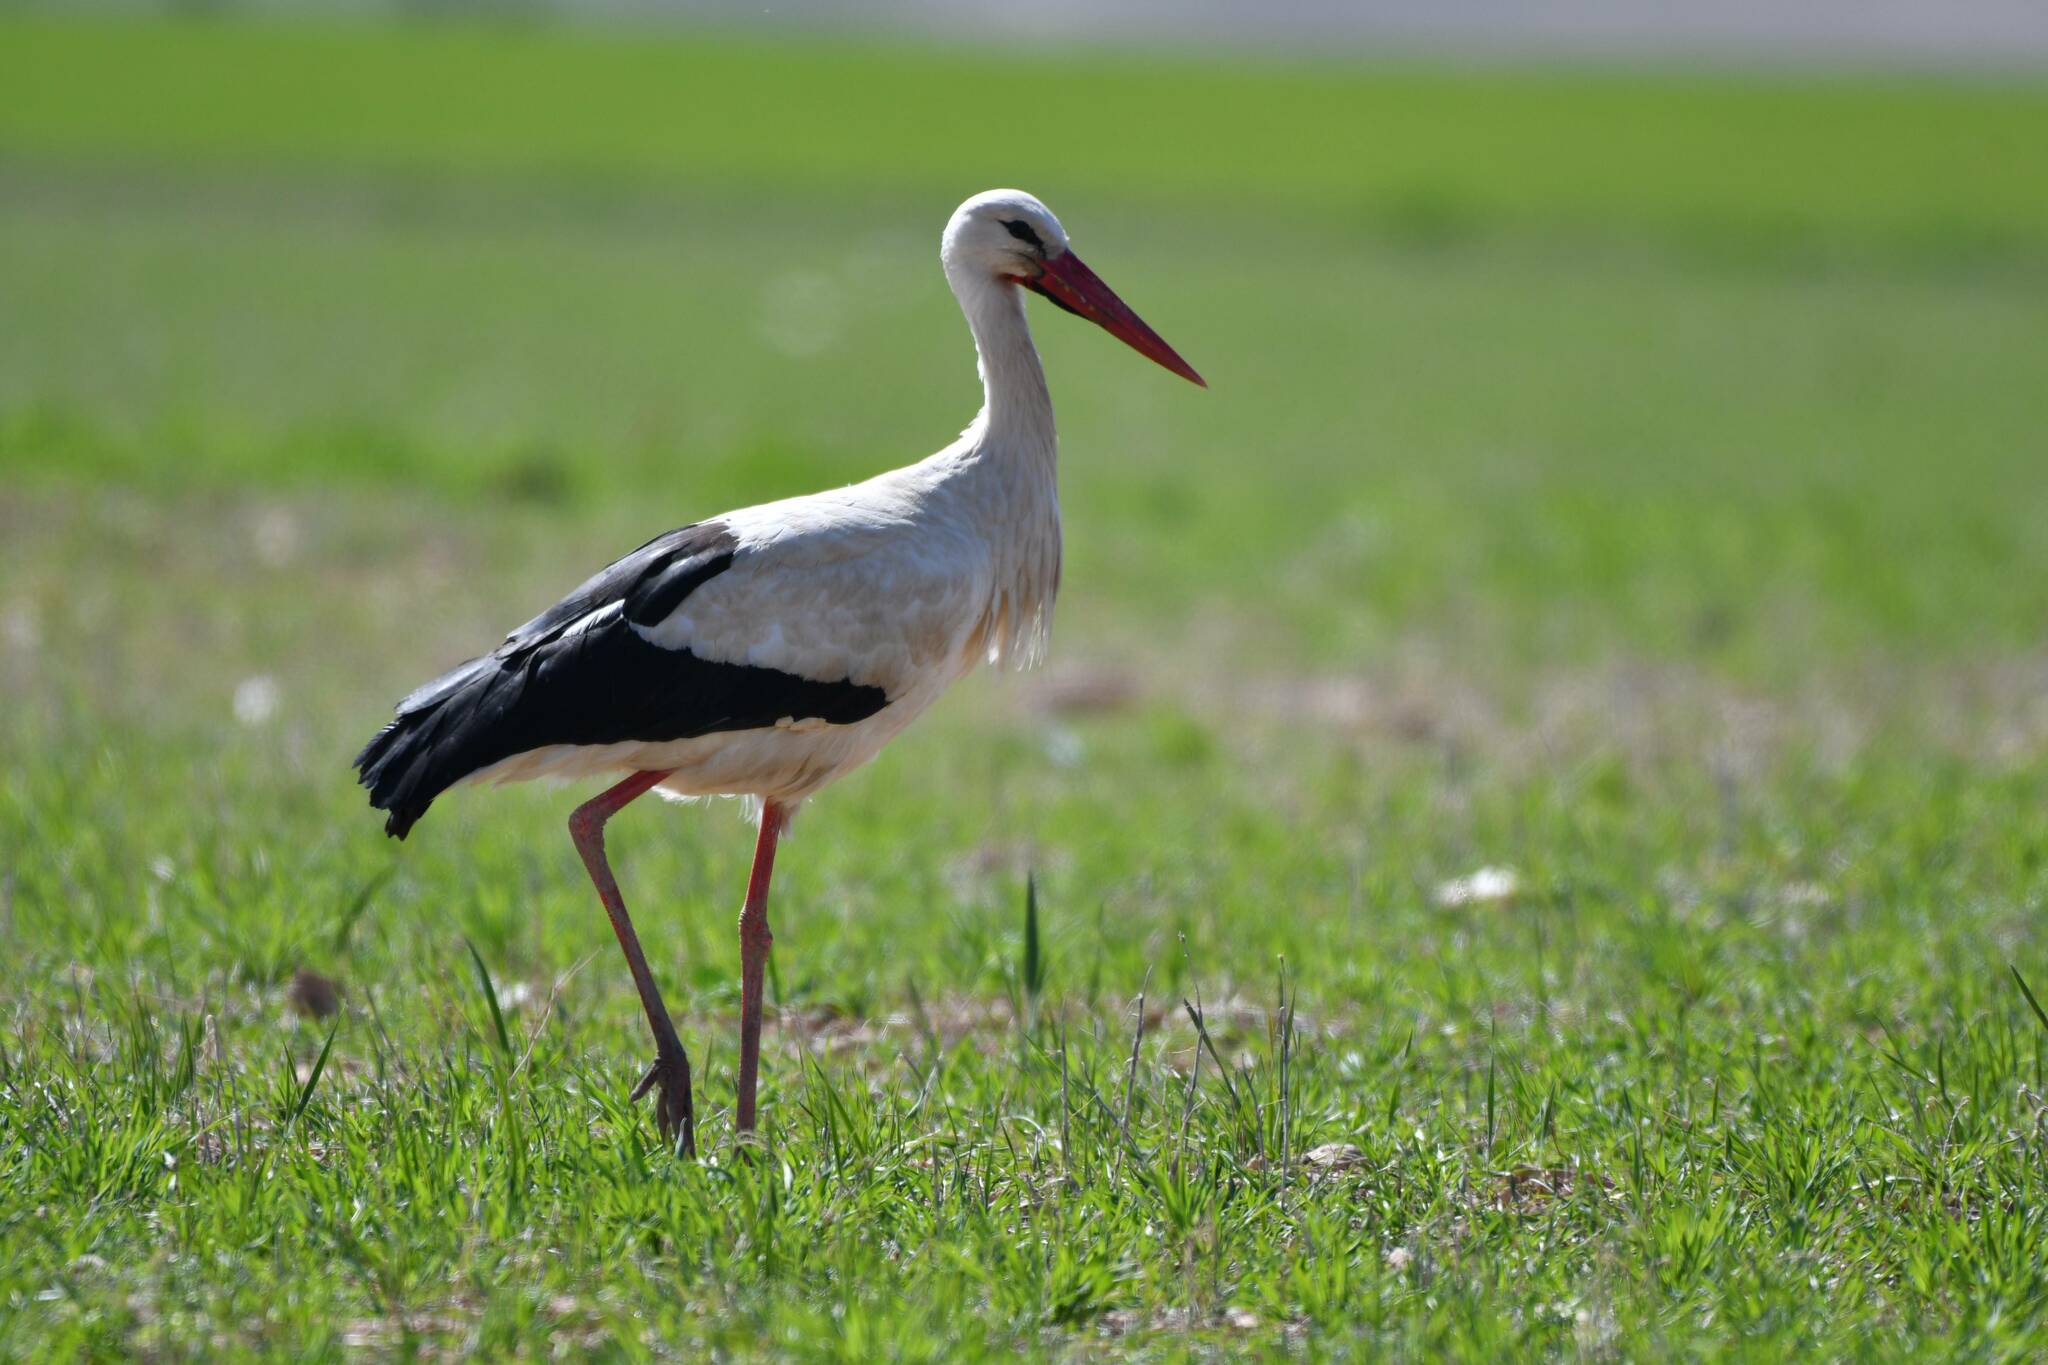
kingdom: Animalia
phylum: Chordata
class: Aves
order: Ciconiiformes
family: Ciconiidae
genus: Ciconia
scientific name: Ciconia ciconia
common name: White stork
